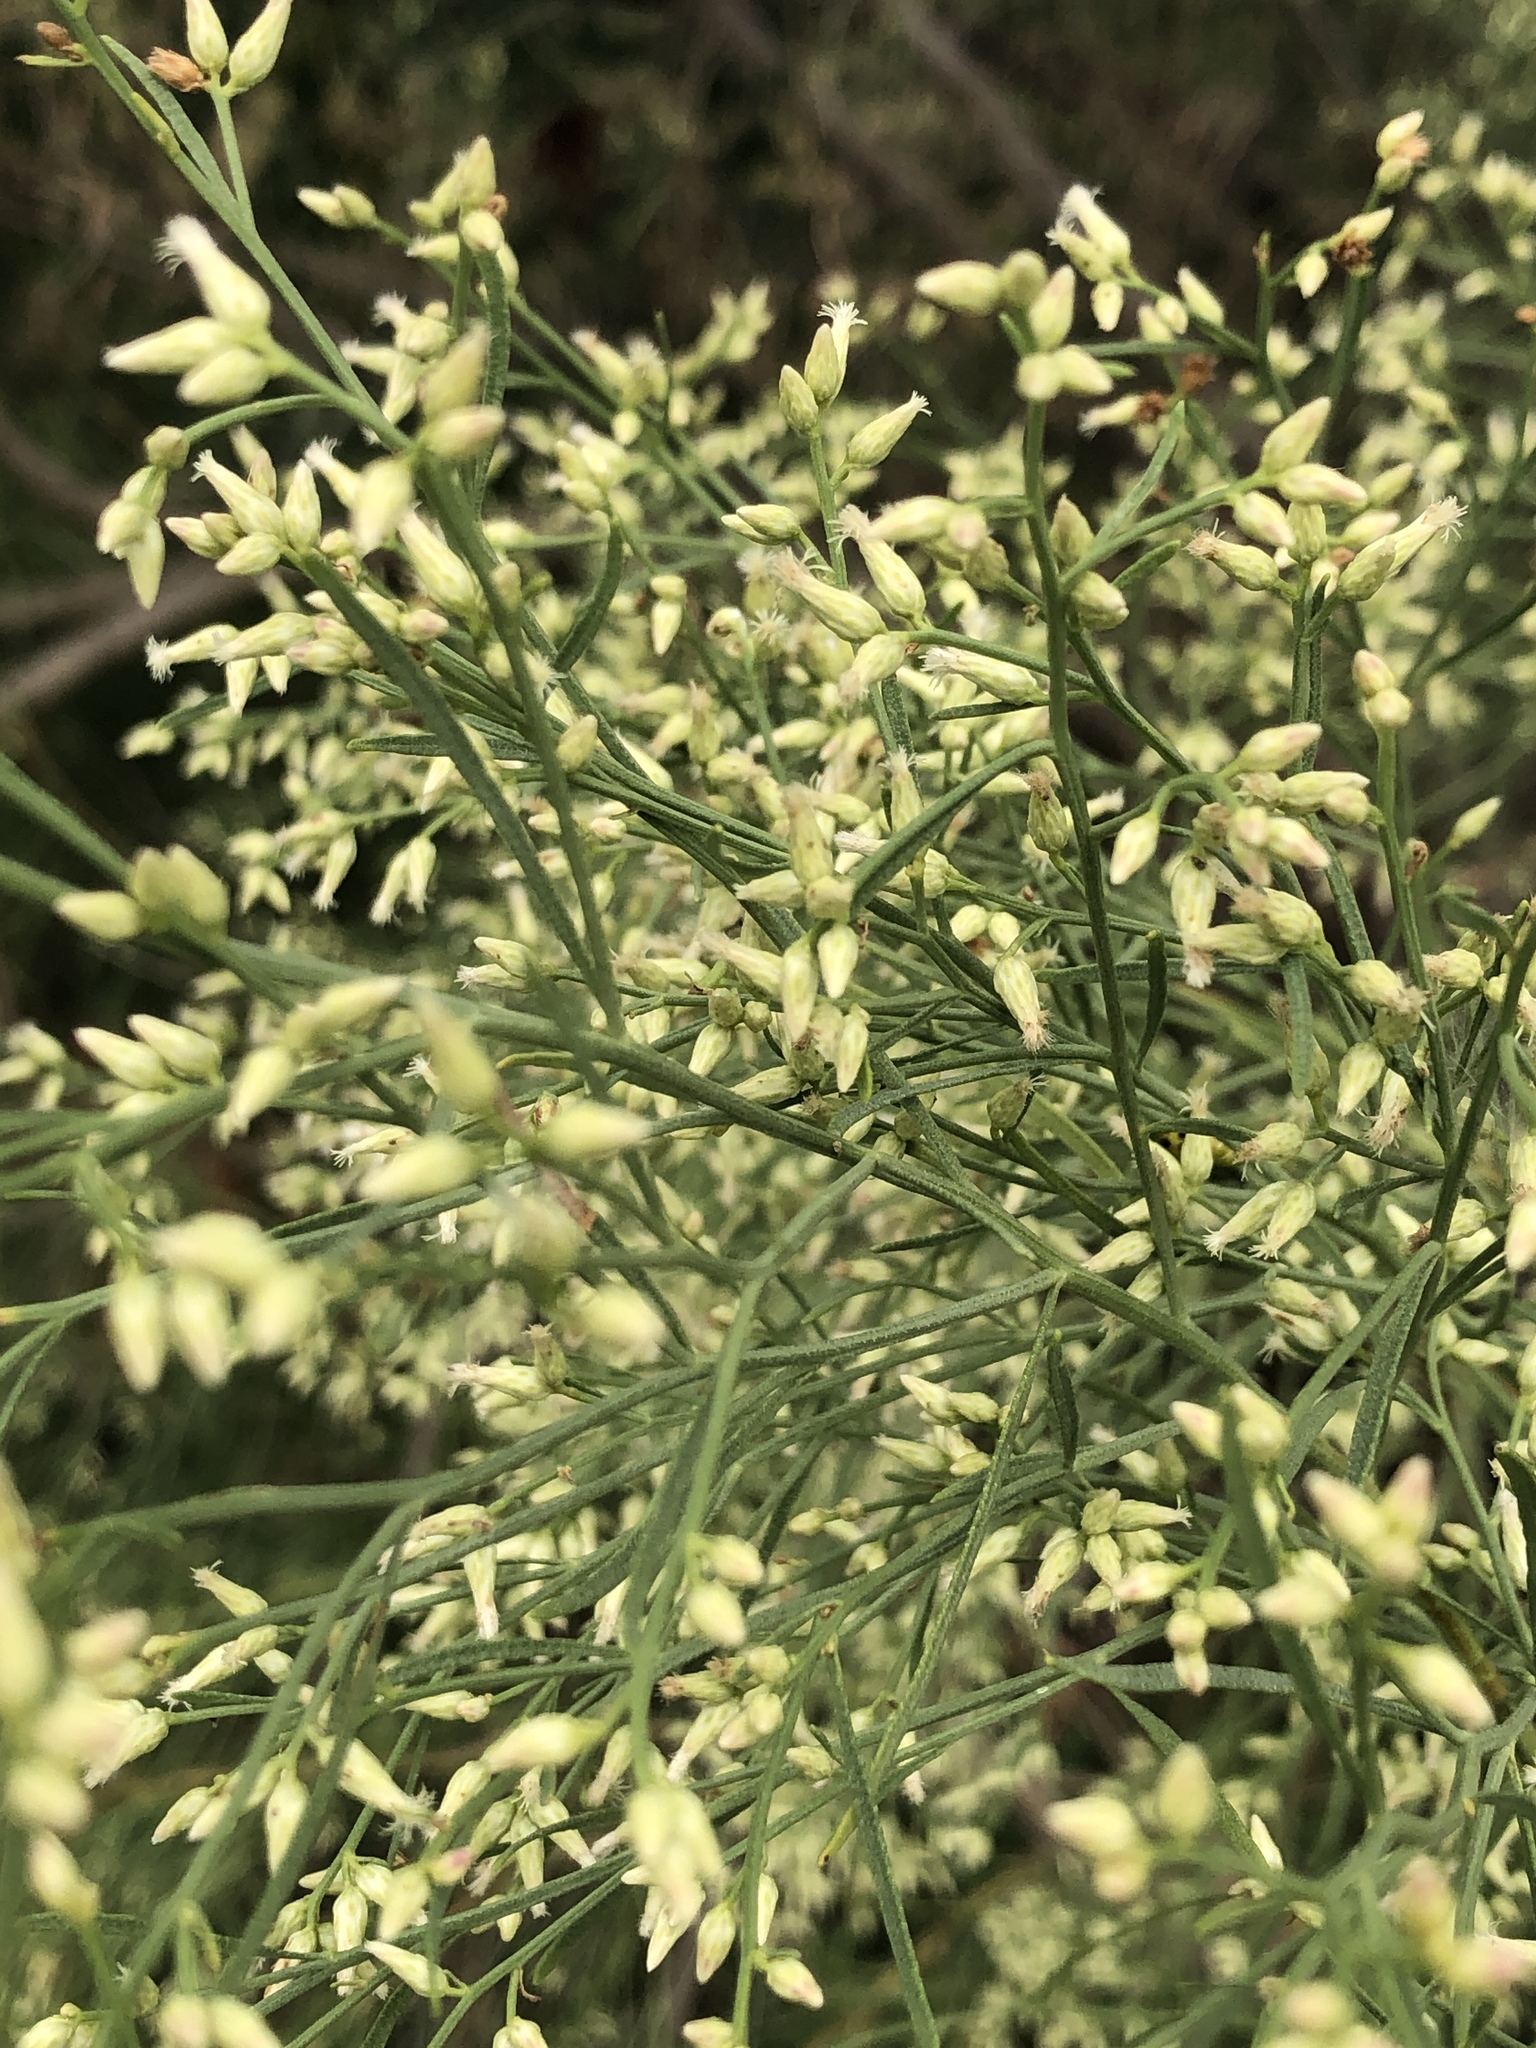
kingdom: Plantae
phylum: Tracheophyta
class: Magnoliopsida
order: Asterales
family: Asteraceae
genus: Baccharis
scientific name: Baccharis neglecta
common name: Roosevelt-weed
